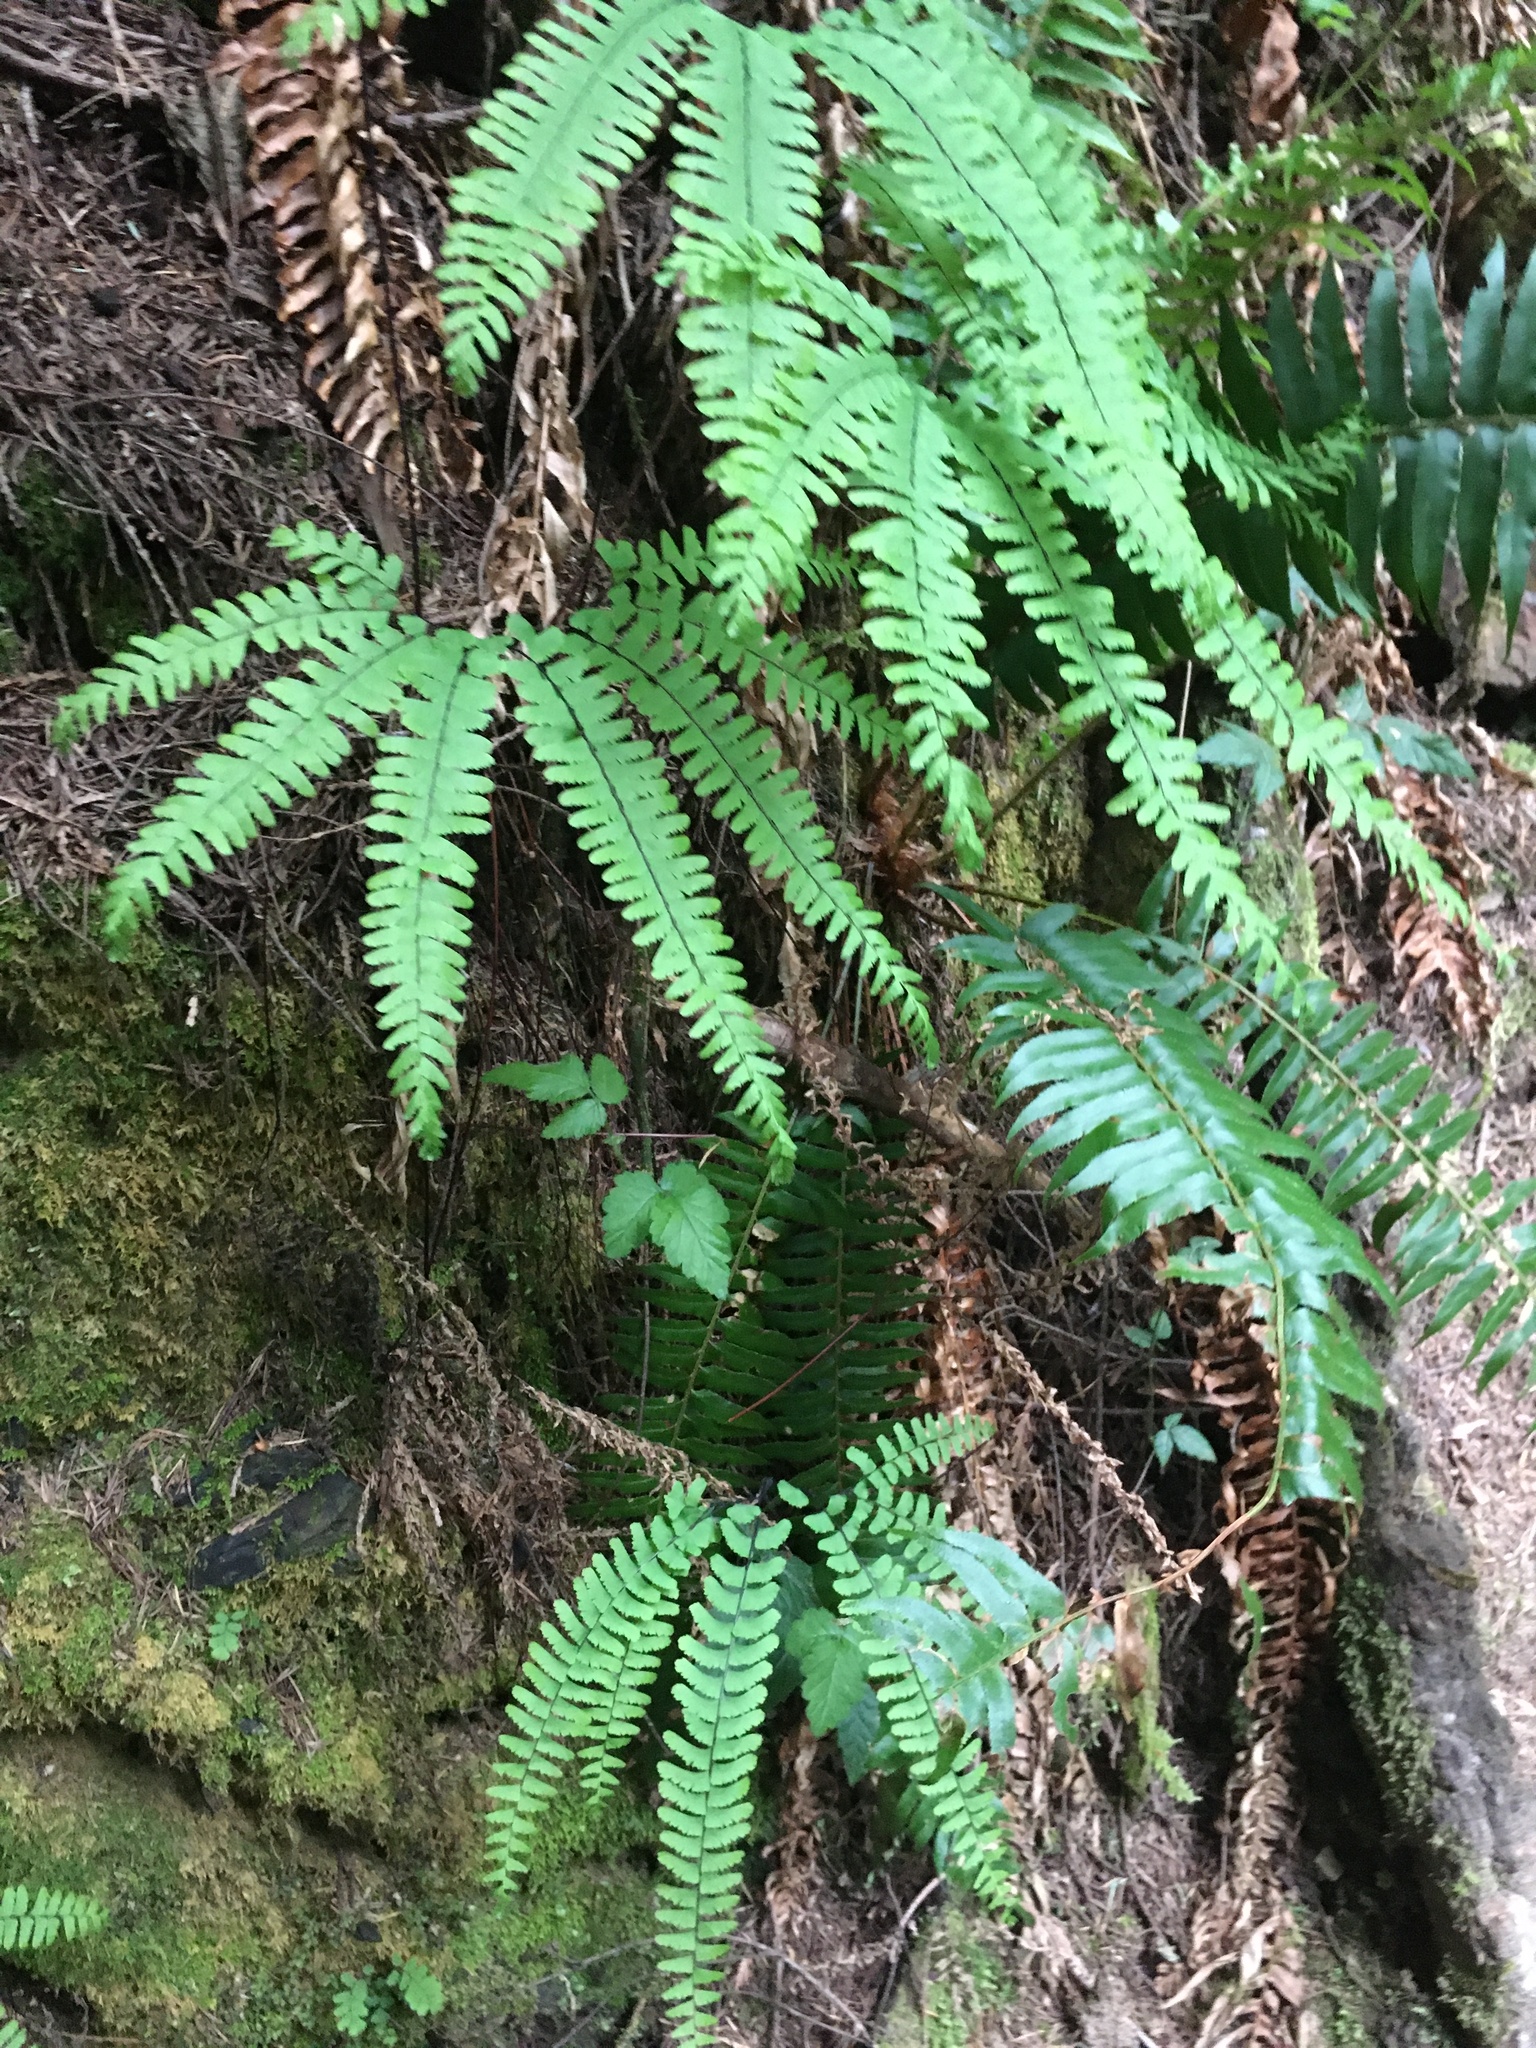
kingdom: Plantae
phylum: Tracheophyta
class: Polypodiopsida
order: Polypodiales
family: Pteridaceae
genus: Adiantum
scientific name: Adiantum aleuticum
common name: Aleutian maidenhair fern
